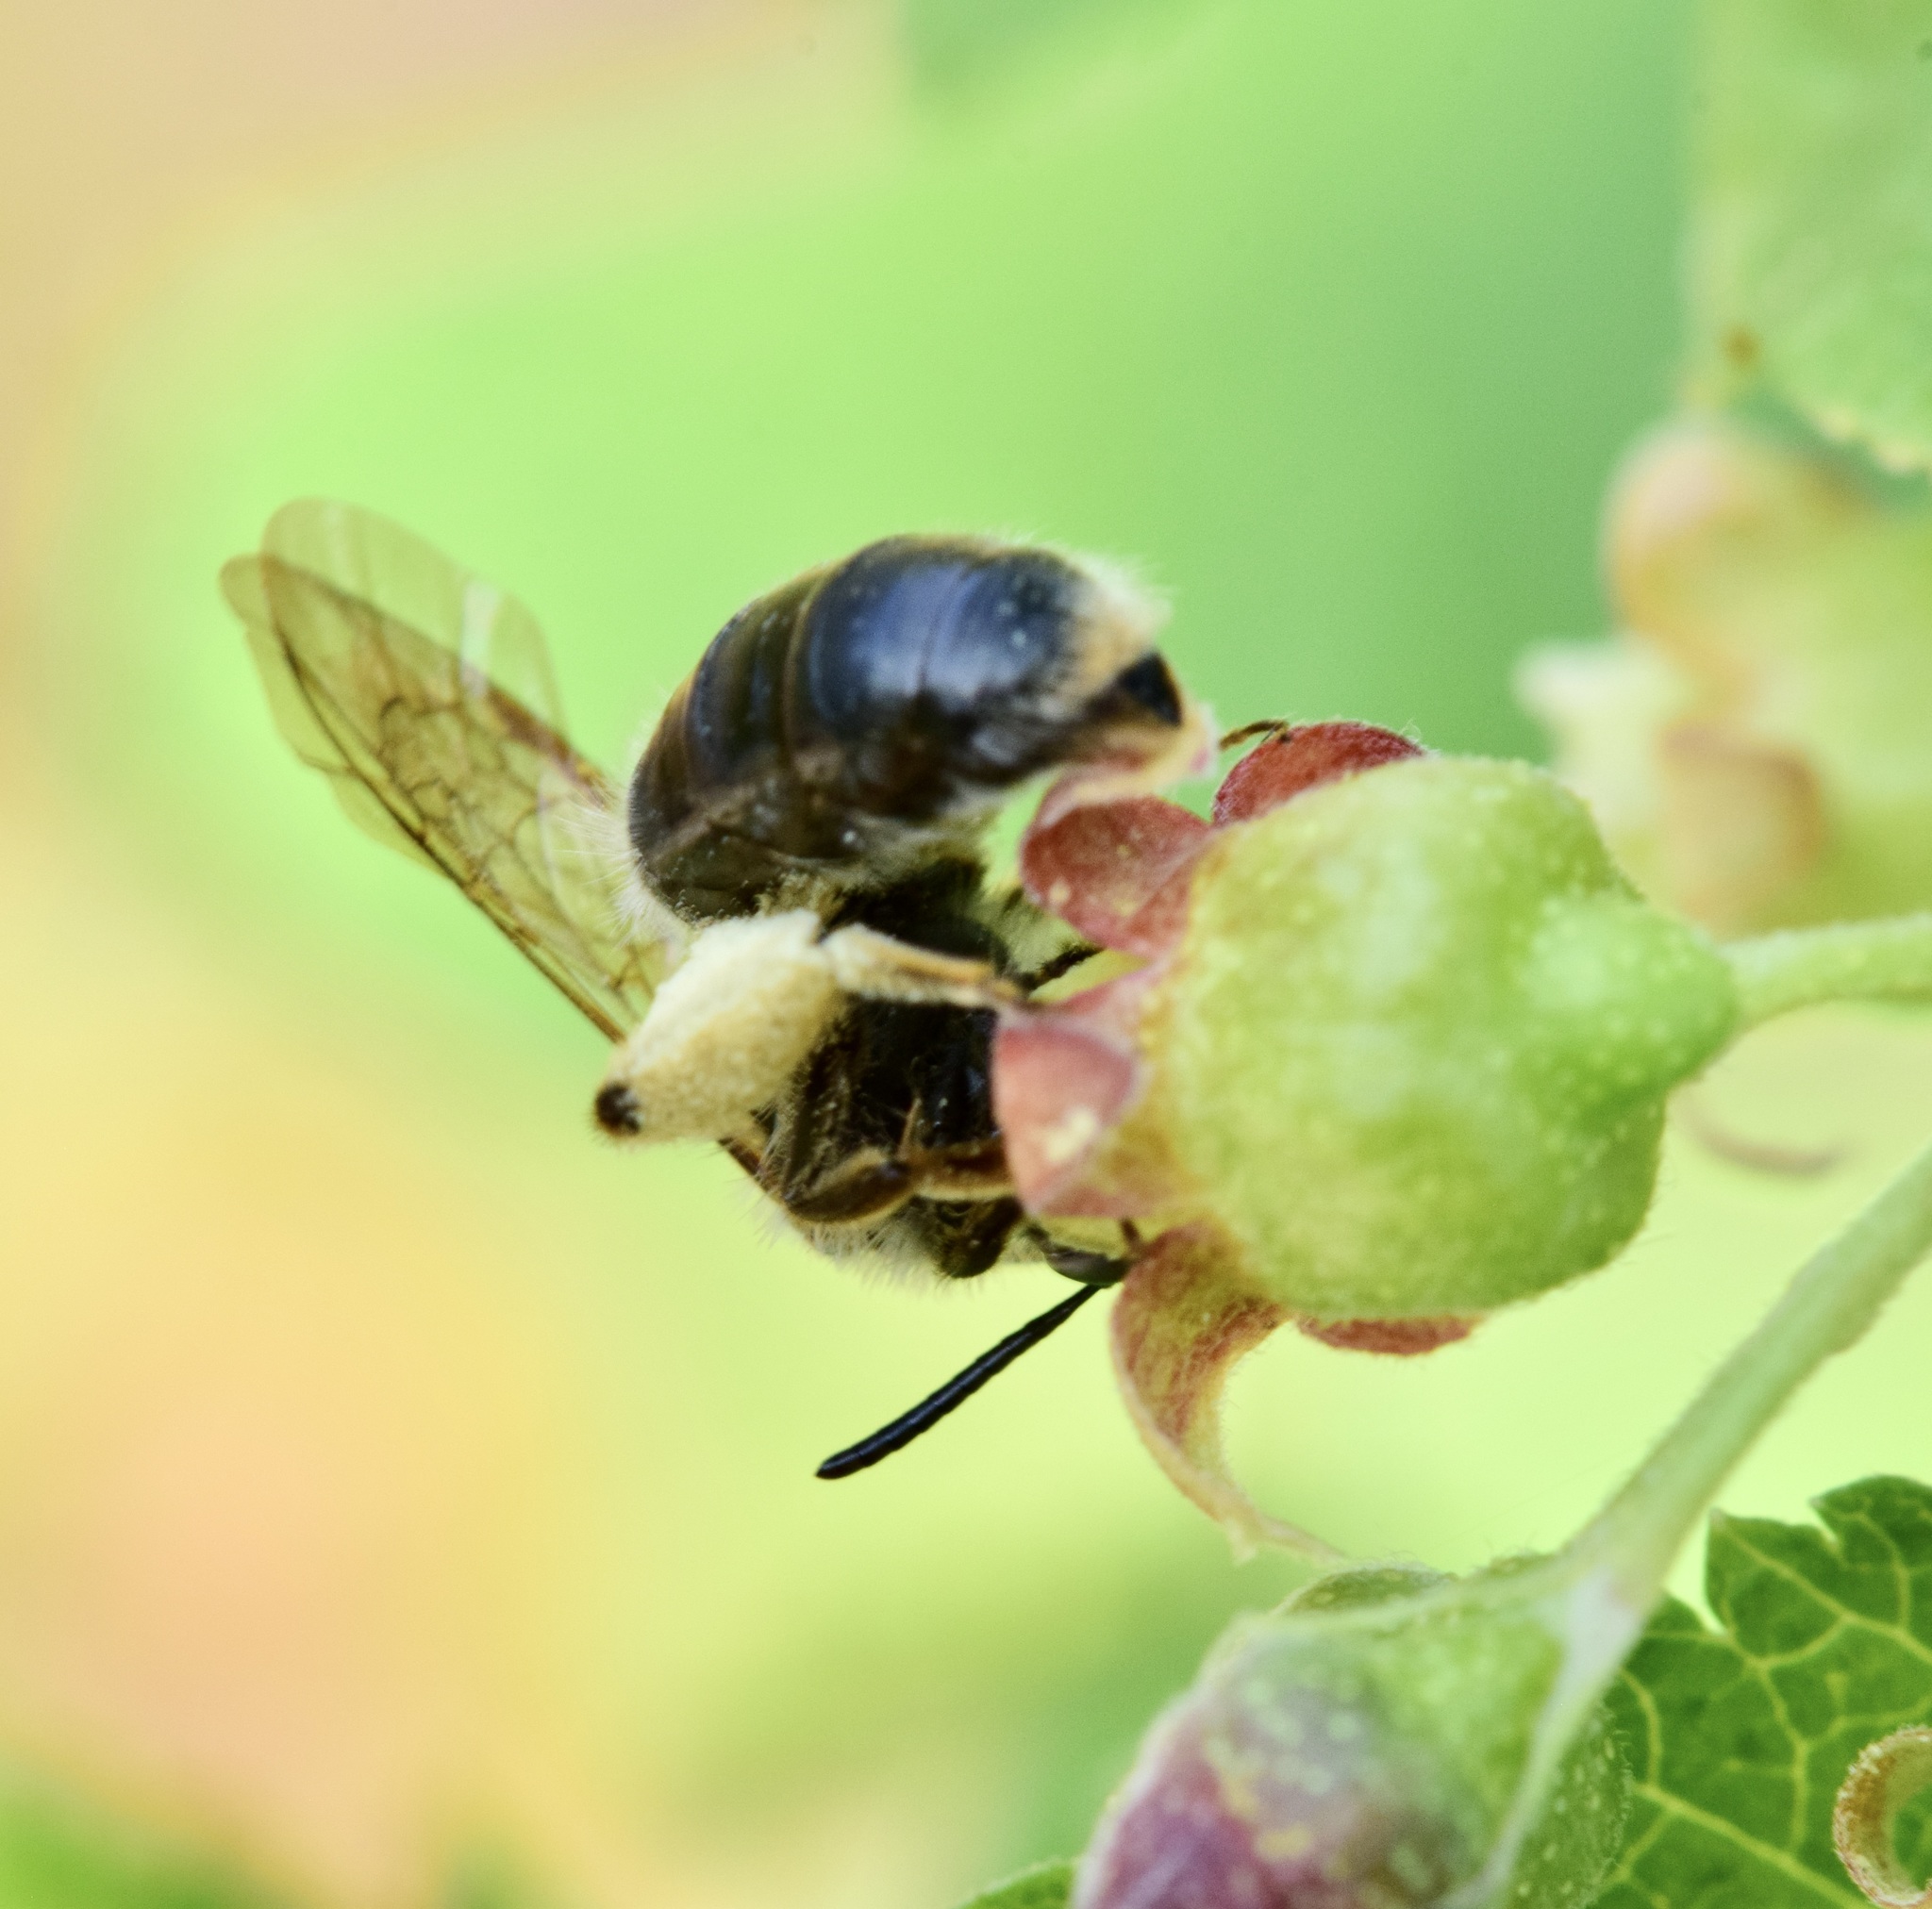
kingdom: Animalia
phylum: Arthropoda
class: Insecta
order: Hymenoptera
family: Andrenidae
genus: Andrena
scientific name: Andrena rufosignata
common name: Brown-fovea miner
